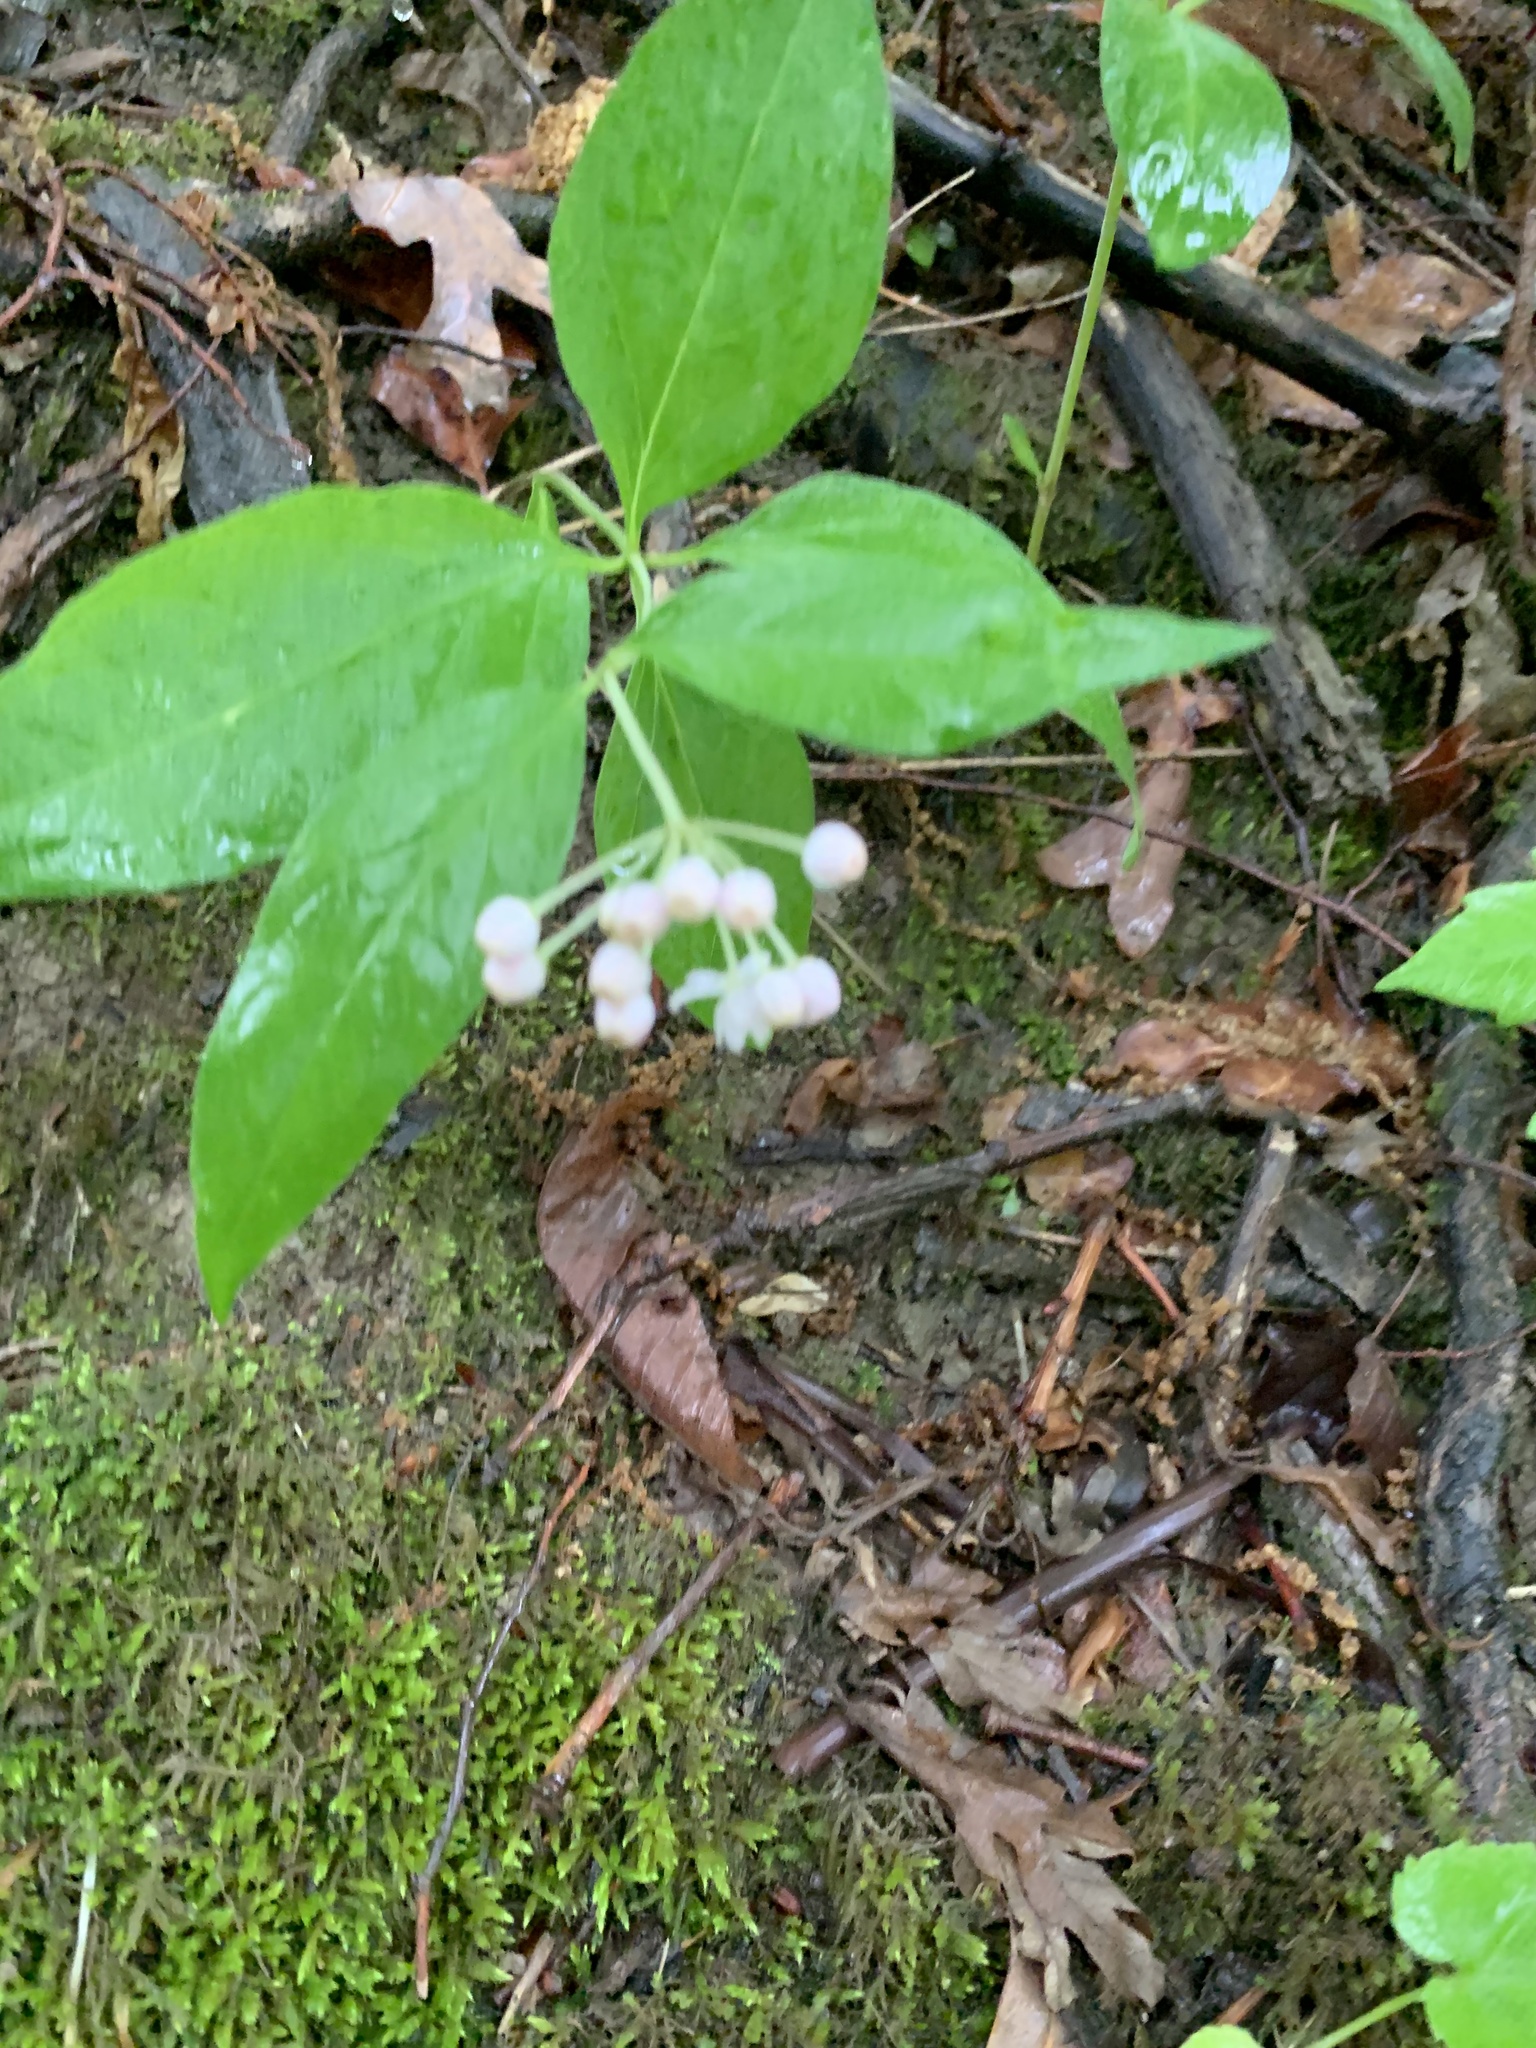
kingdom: Plantae
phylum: Tracheophyta
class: Magnoliopsida
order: Gentianales
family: Apocynaceae
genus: Asclepias
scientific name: Asclepias quadrifolia
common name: Whorled milkweed
